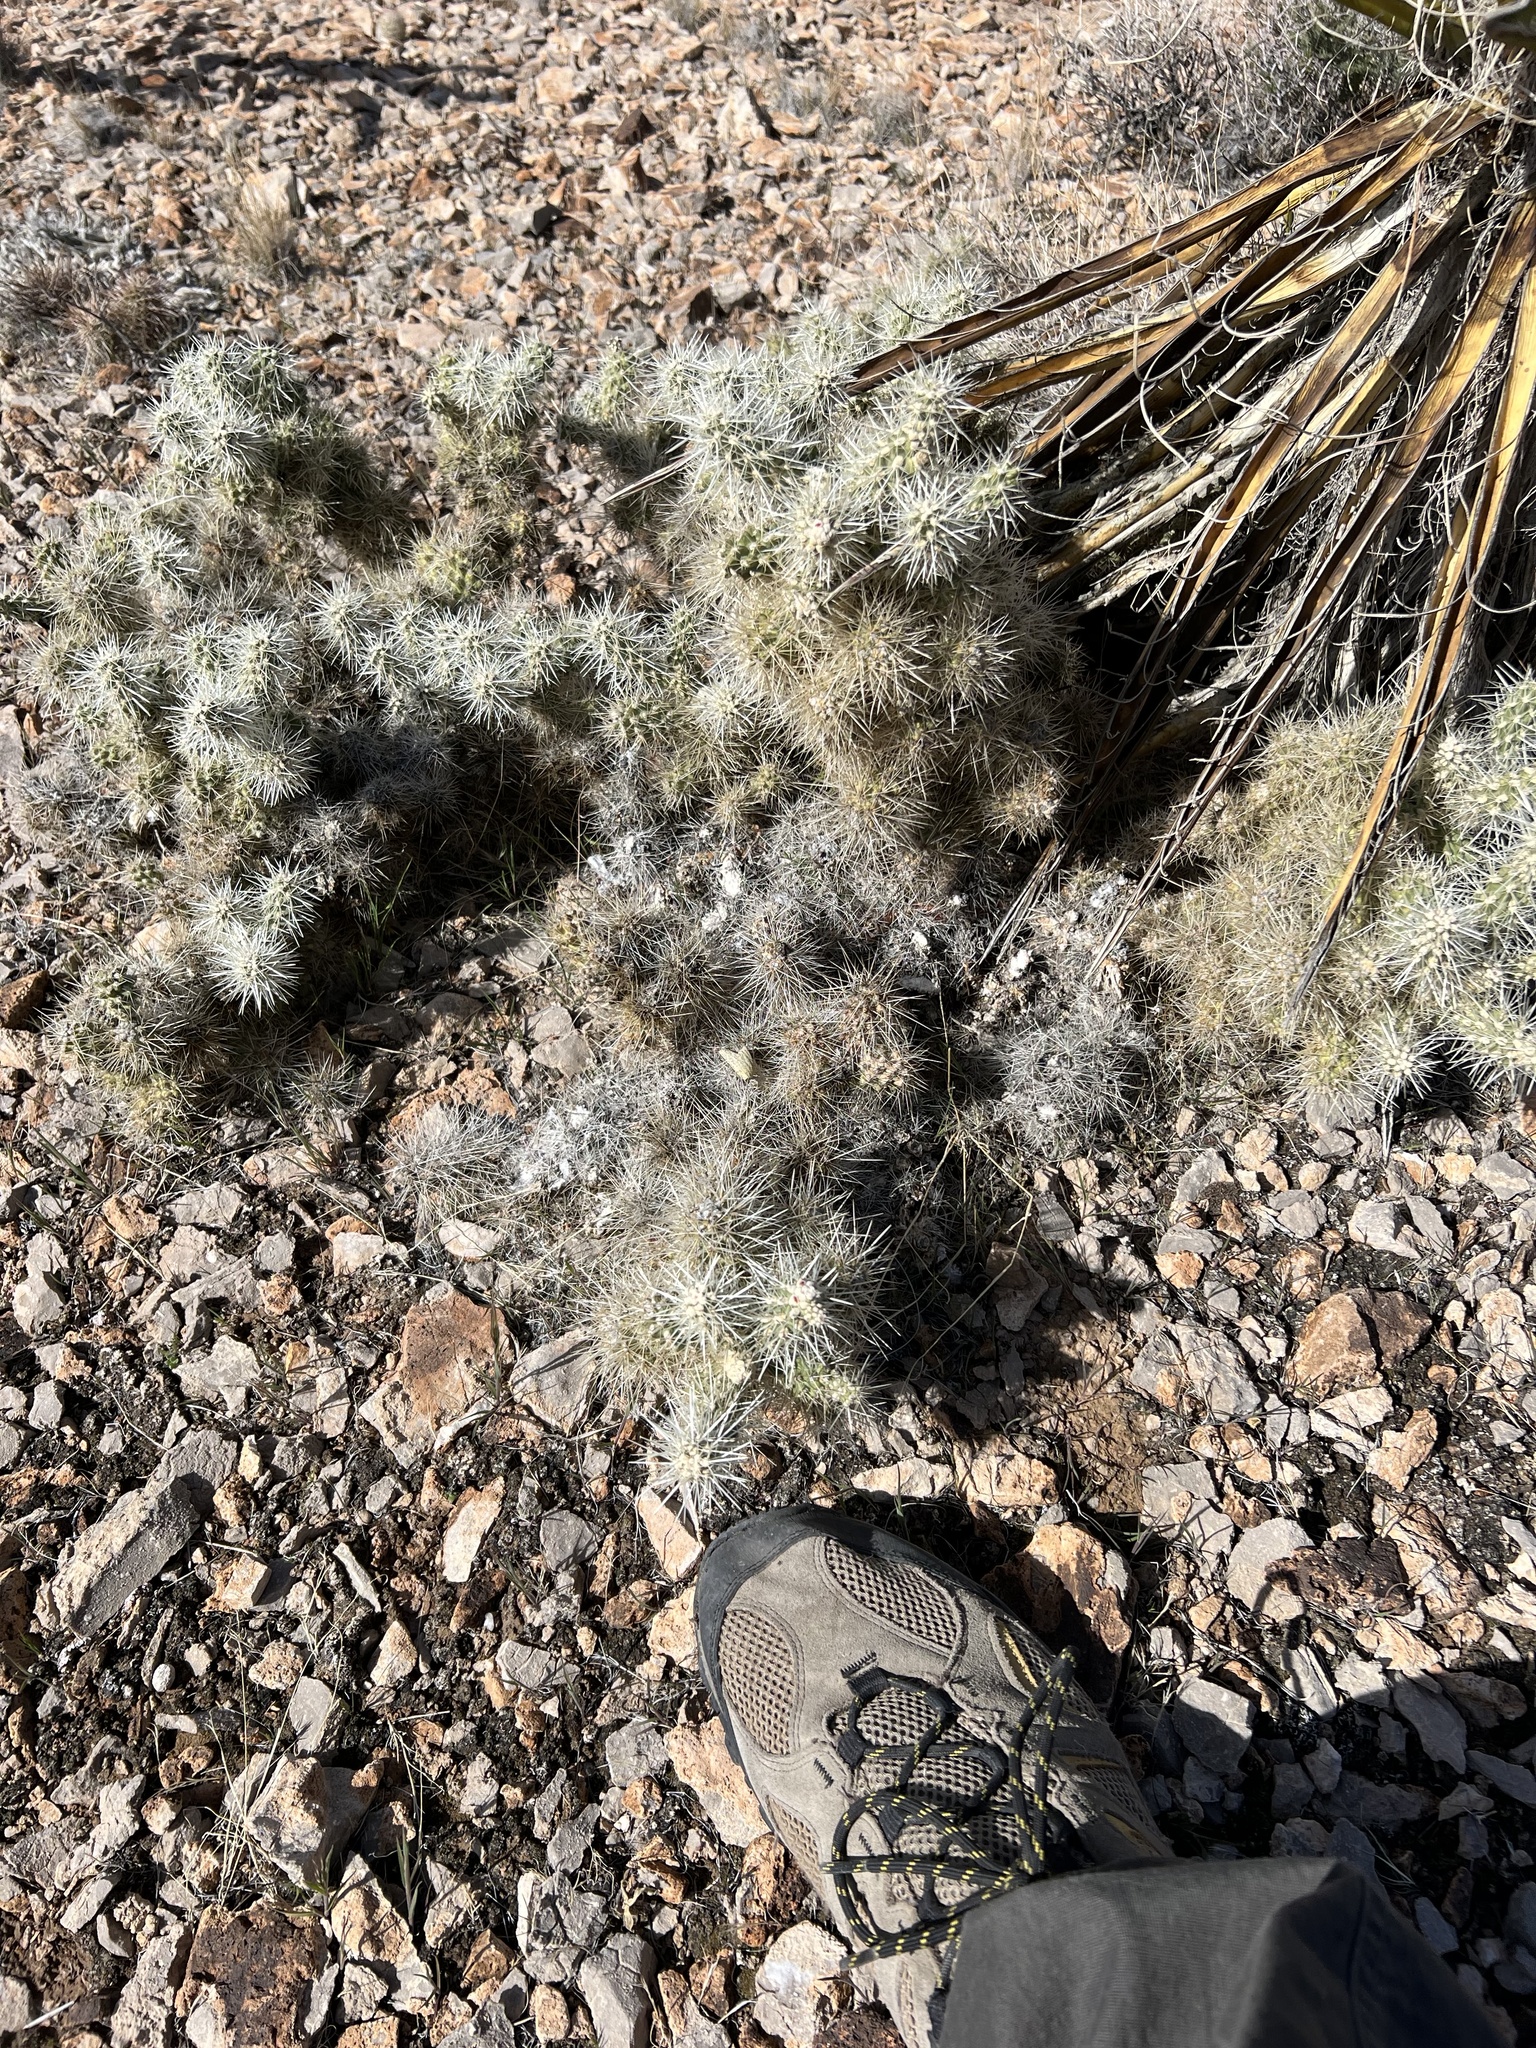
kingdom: Plantae
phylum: Tracheophyta
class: Magnoliopsida
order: Caryophyllales
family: Cactaceae
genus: Cylindropuntia
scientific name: Cylindropuntia multigeniculata
